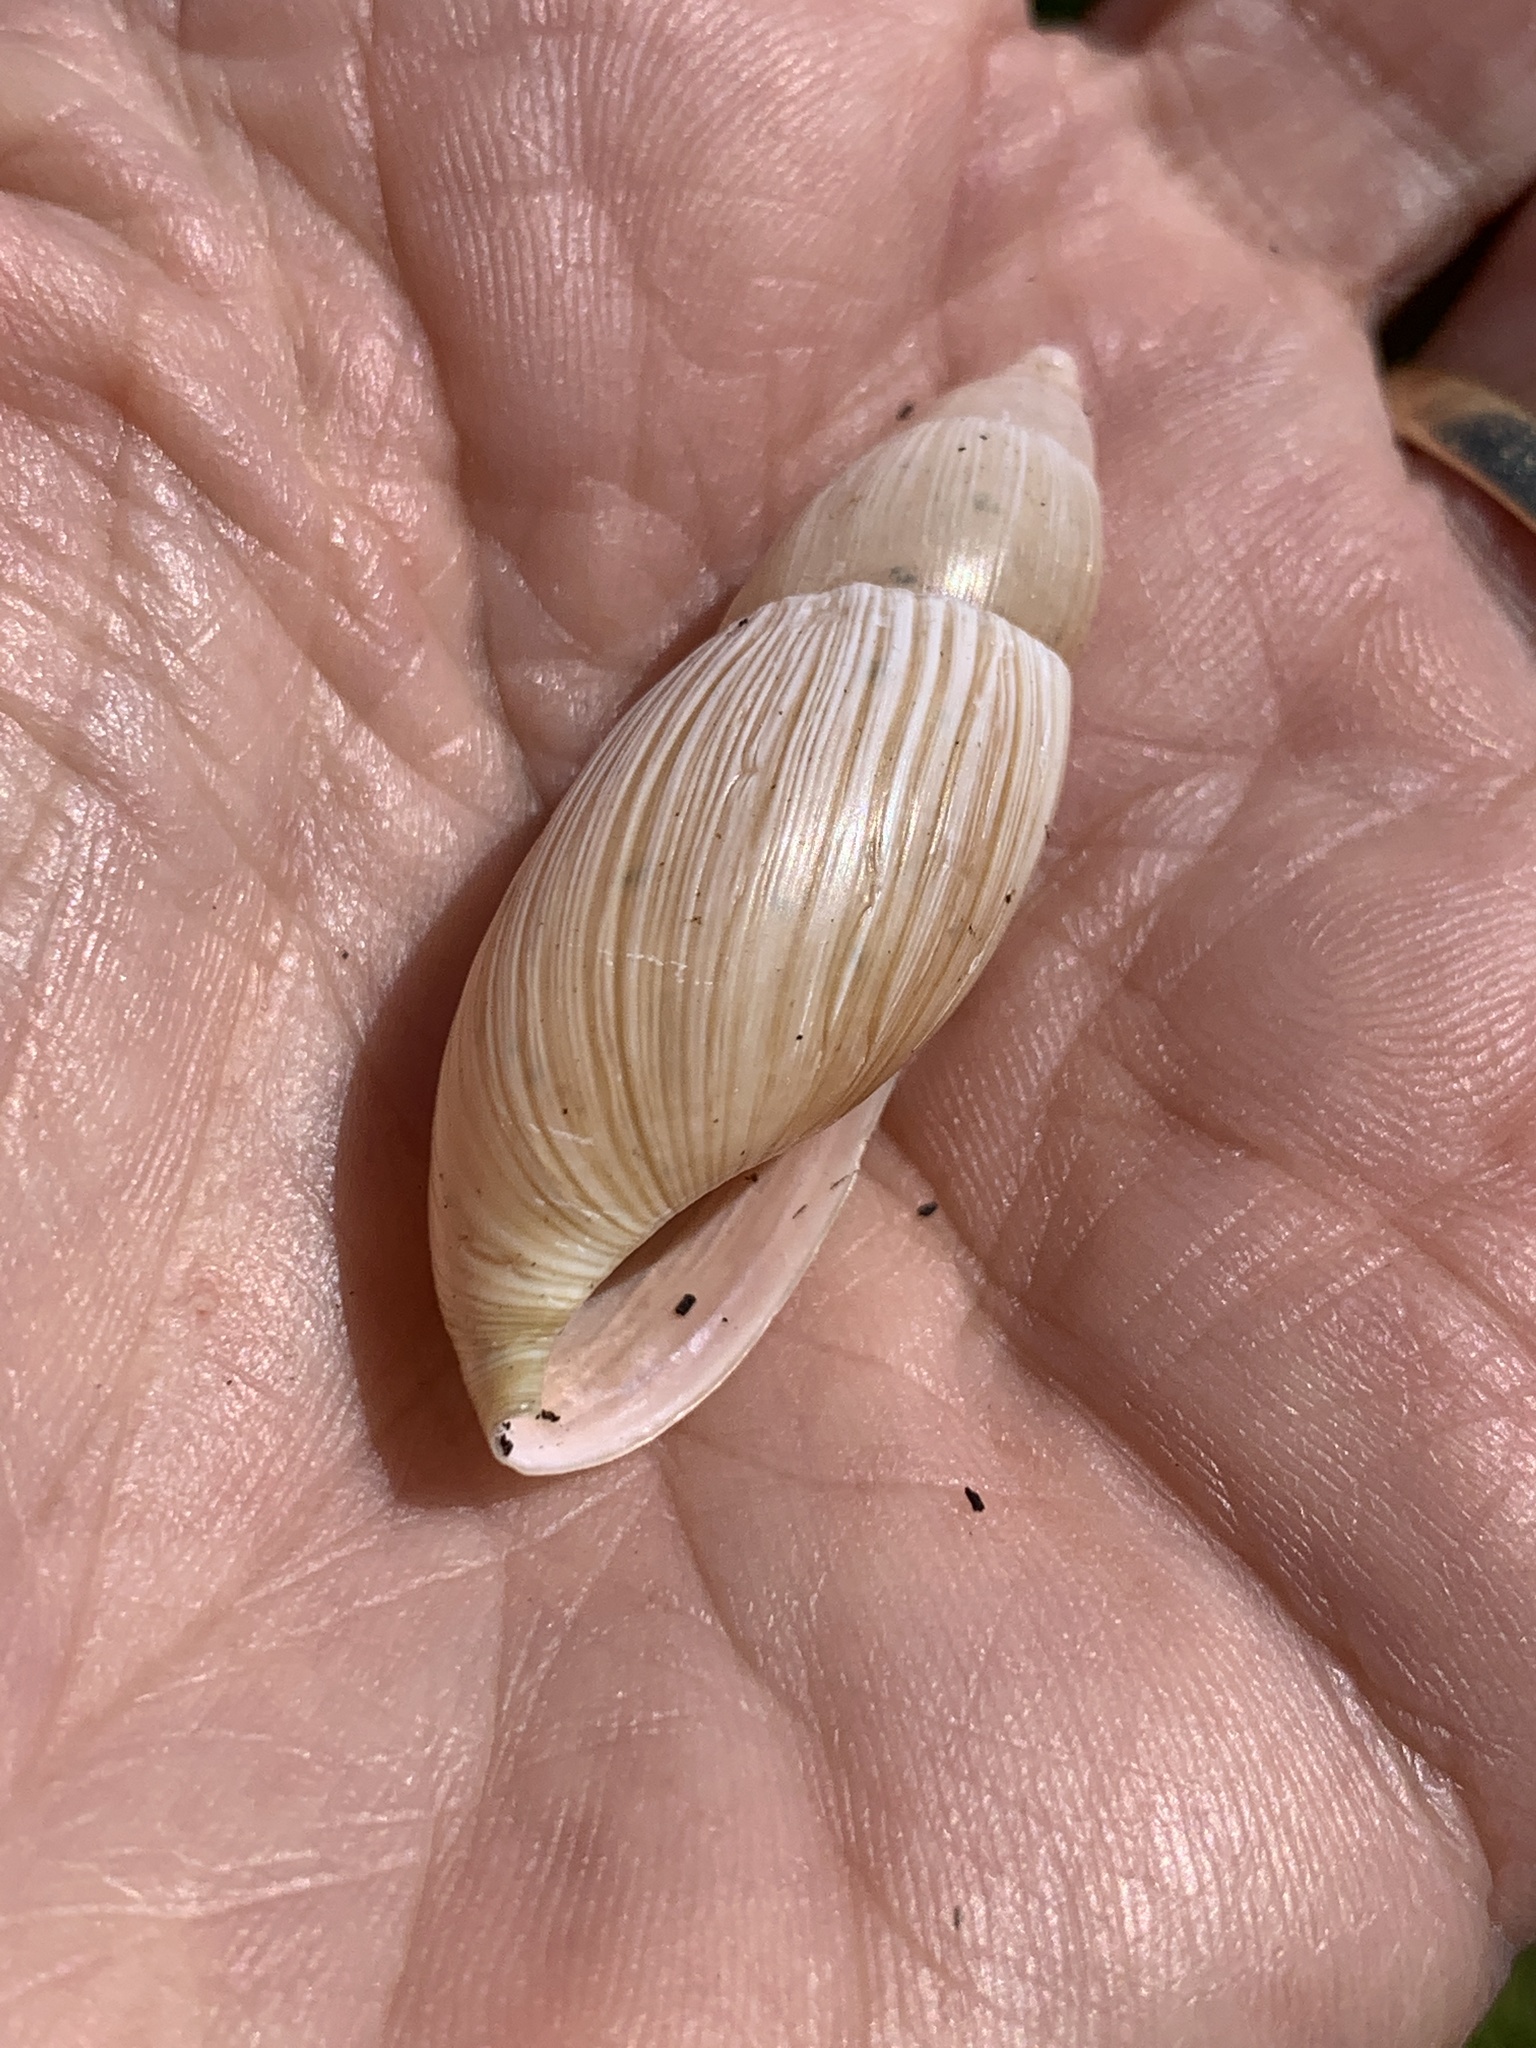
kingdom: Animalia
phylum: Mollusca
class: Gastropoda
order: Stylommatophora
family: Spiraxidae
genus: Euglandina
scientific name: Euglandina rosea
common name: Rosy wolfsnail
